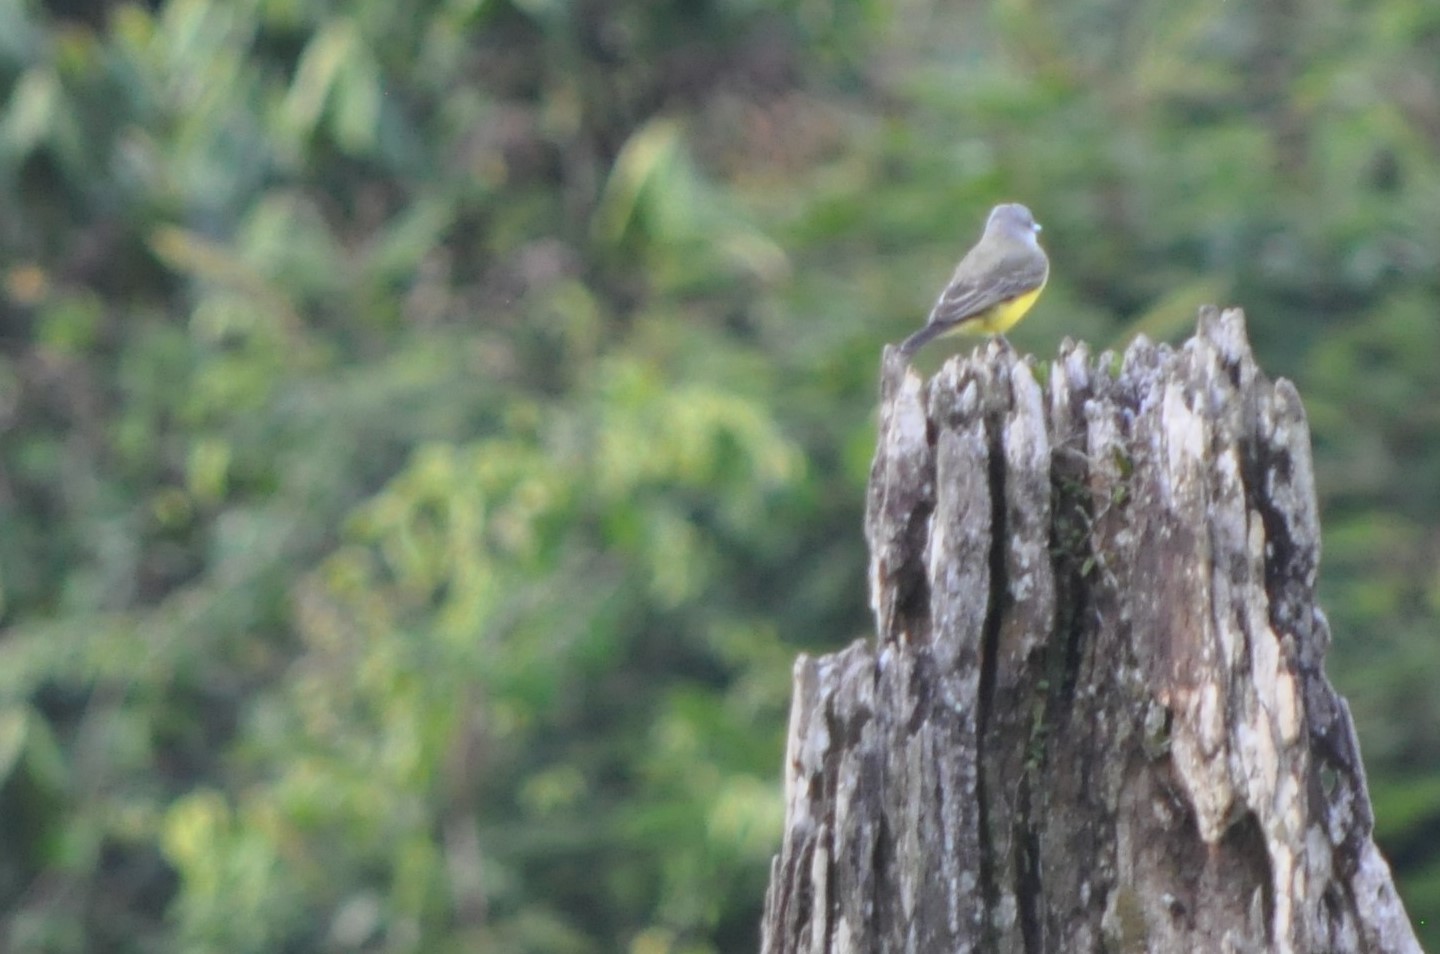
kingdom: Animalia
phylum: Chordata
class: Aves
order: Passeriformes
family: Tyrannidae
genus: Tyrannus
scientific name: Tyrannus melancholicus
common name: Tropical kingbird
